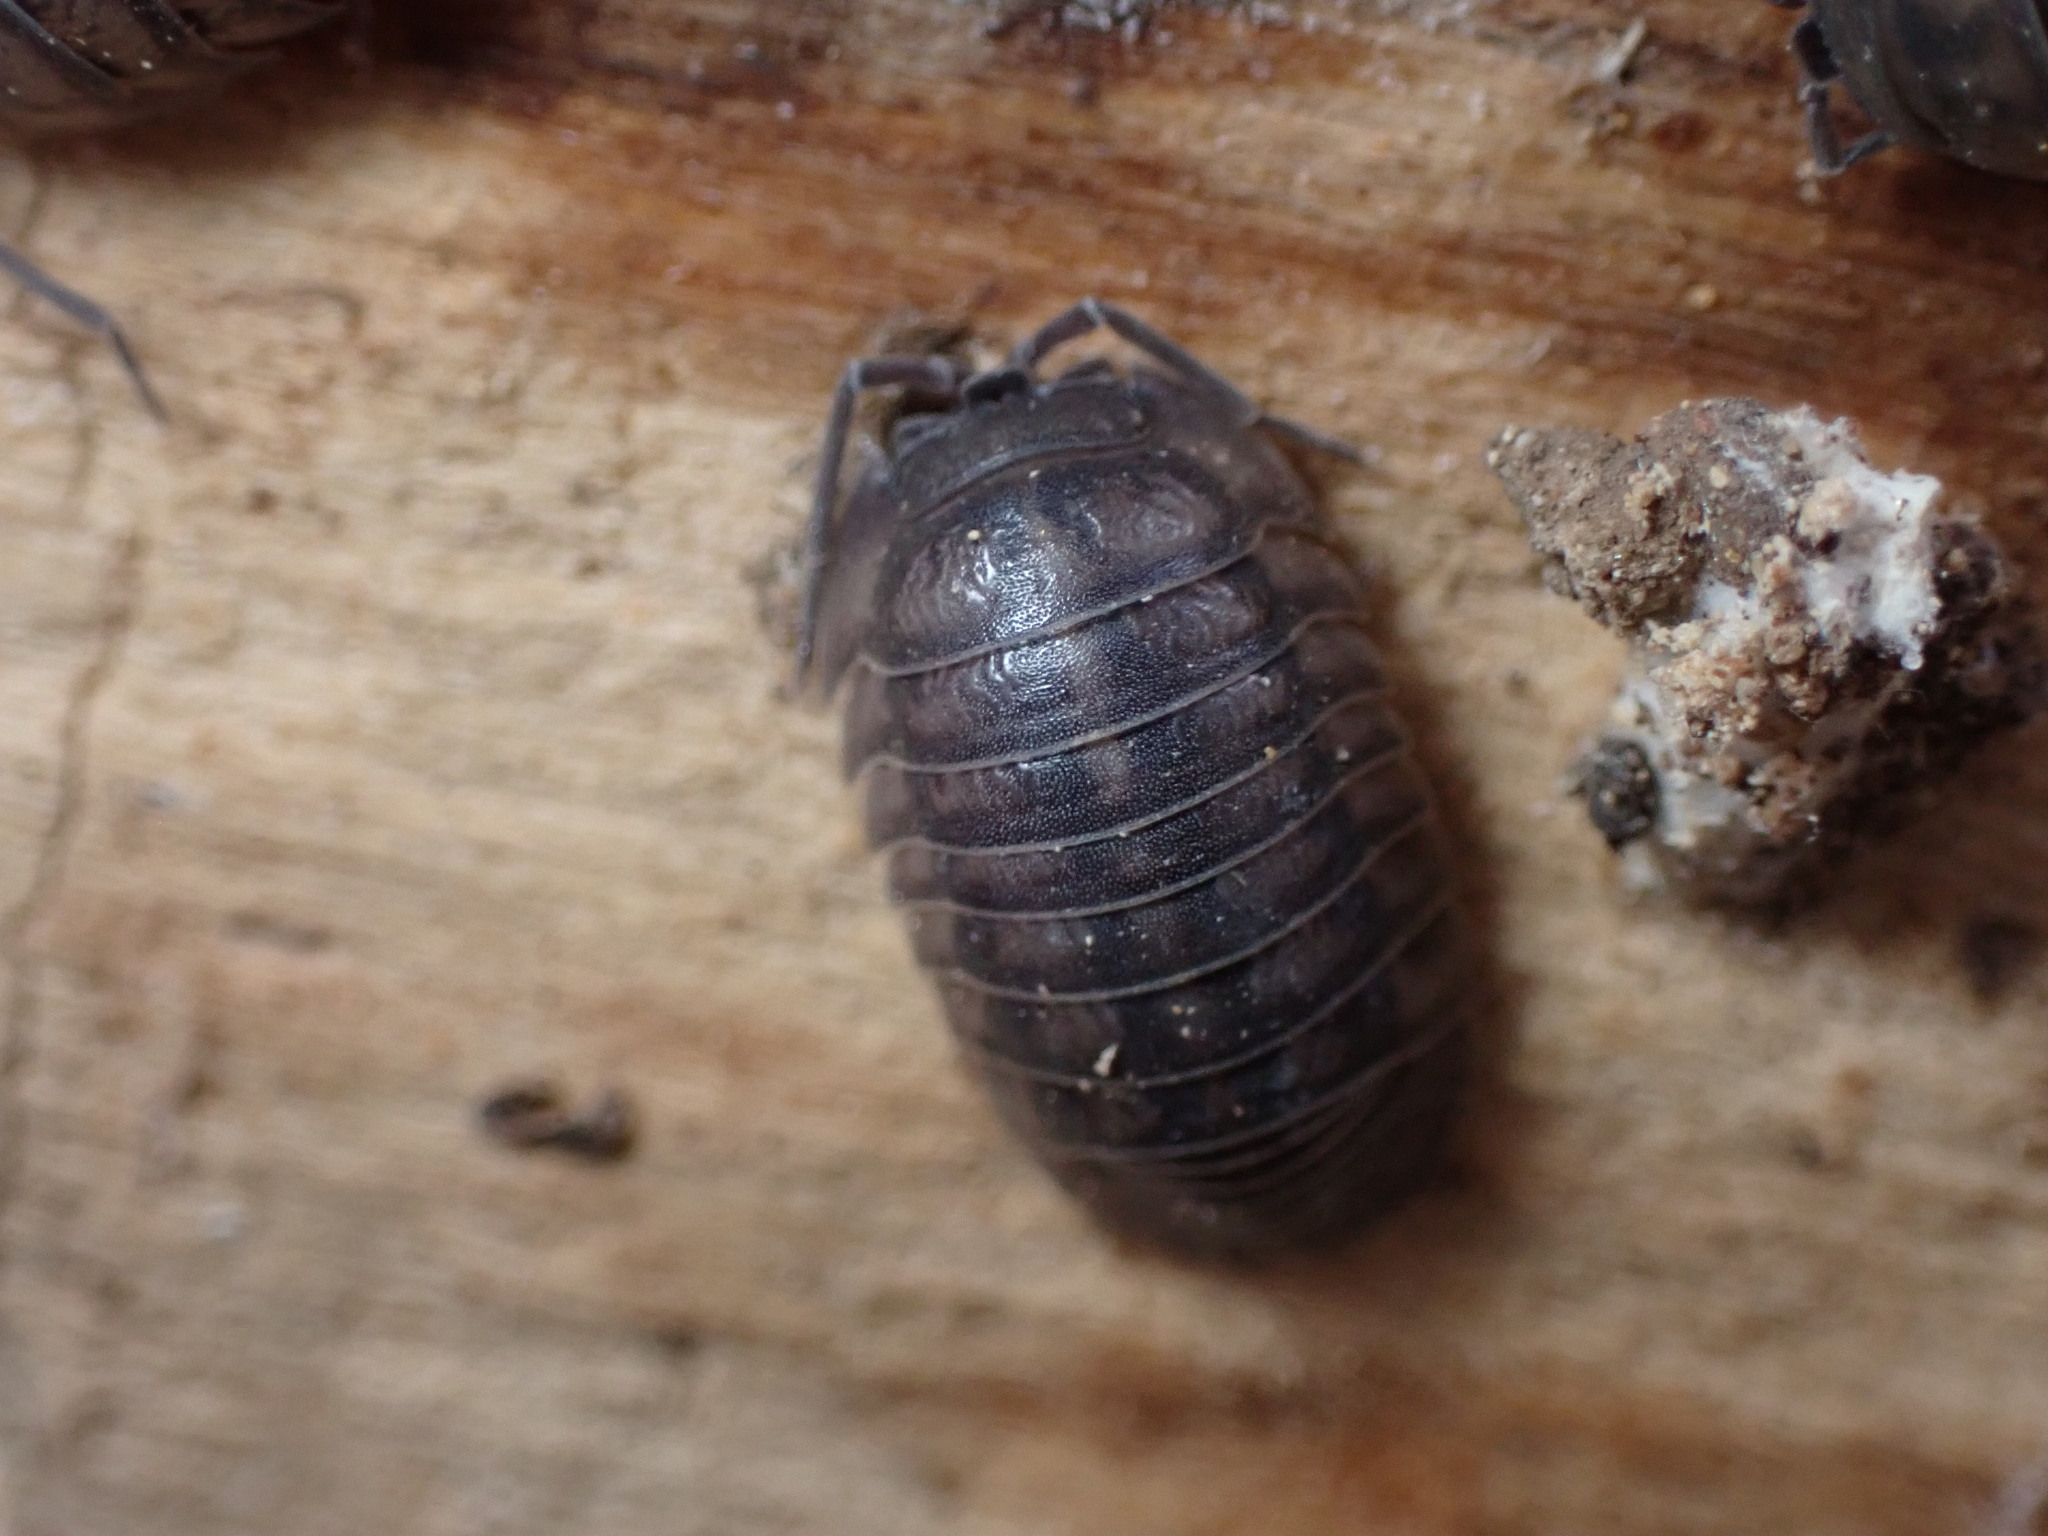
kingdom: Animalia
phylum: Arthropoda
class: Malacostraca
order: Isopoda
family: Armadillidiidae
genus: Armadillidium
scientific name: Armadillidium nasatum
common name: Isopod
